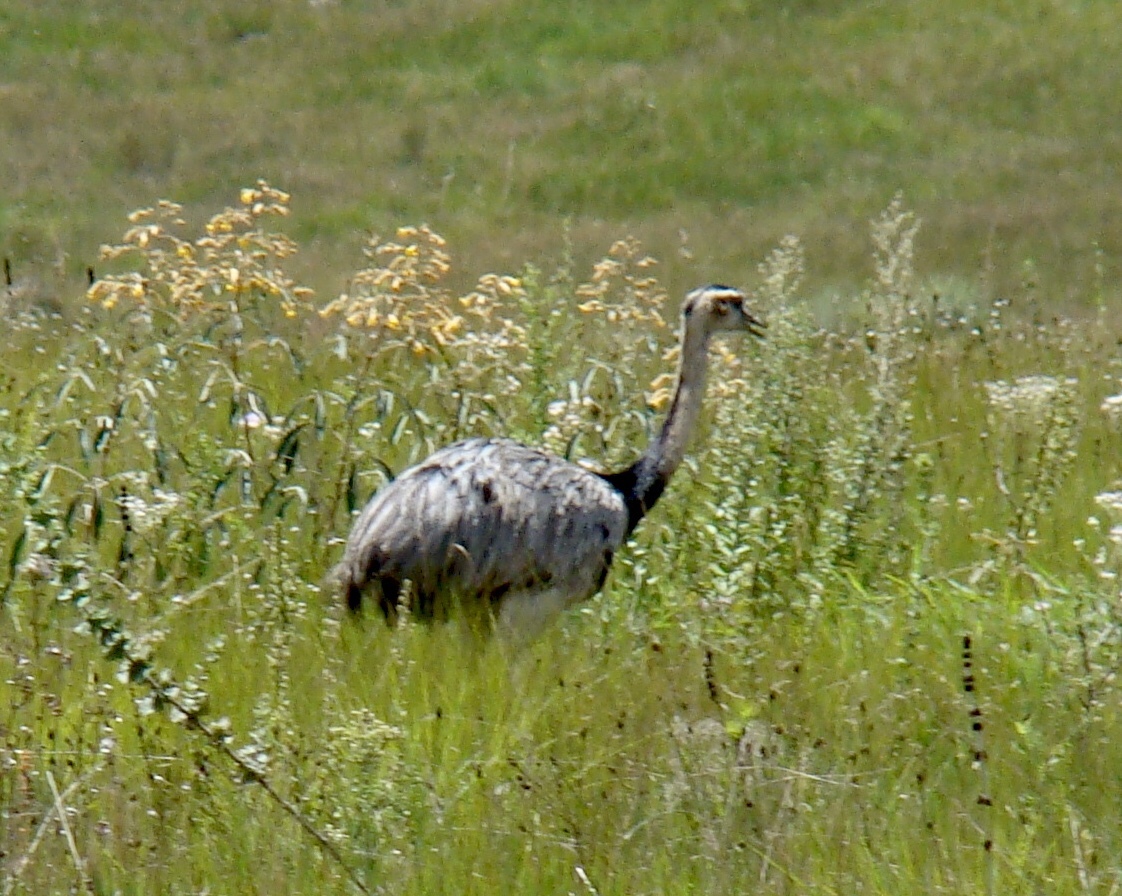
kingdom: Animalia
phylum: Chordata
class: Aves
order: Rheiformes
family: Rheidae
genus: Rhea
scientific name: Rhea americana
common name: Greater rhea
